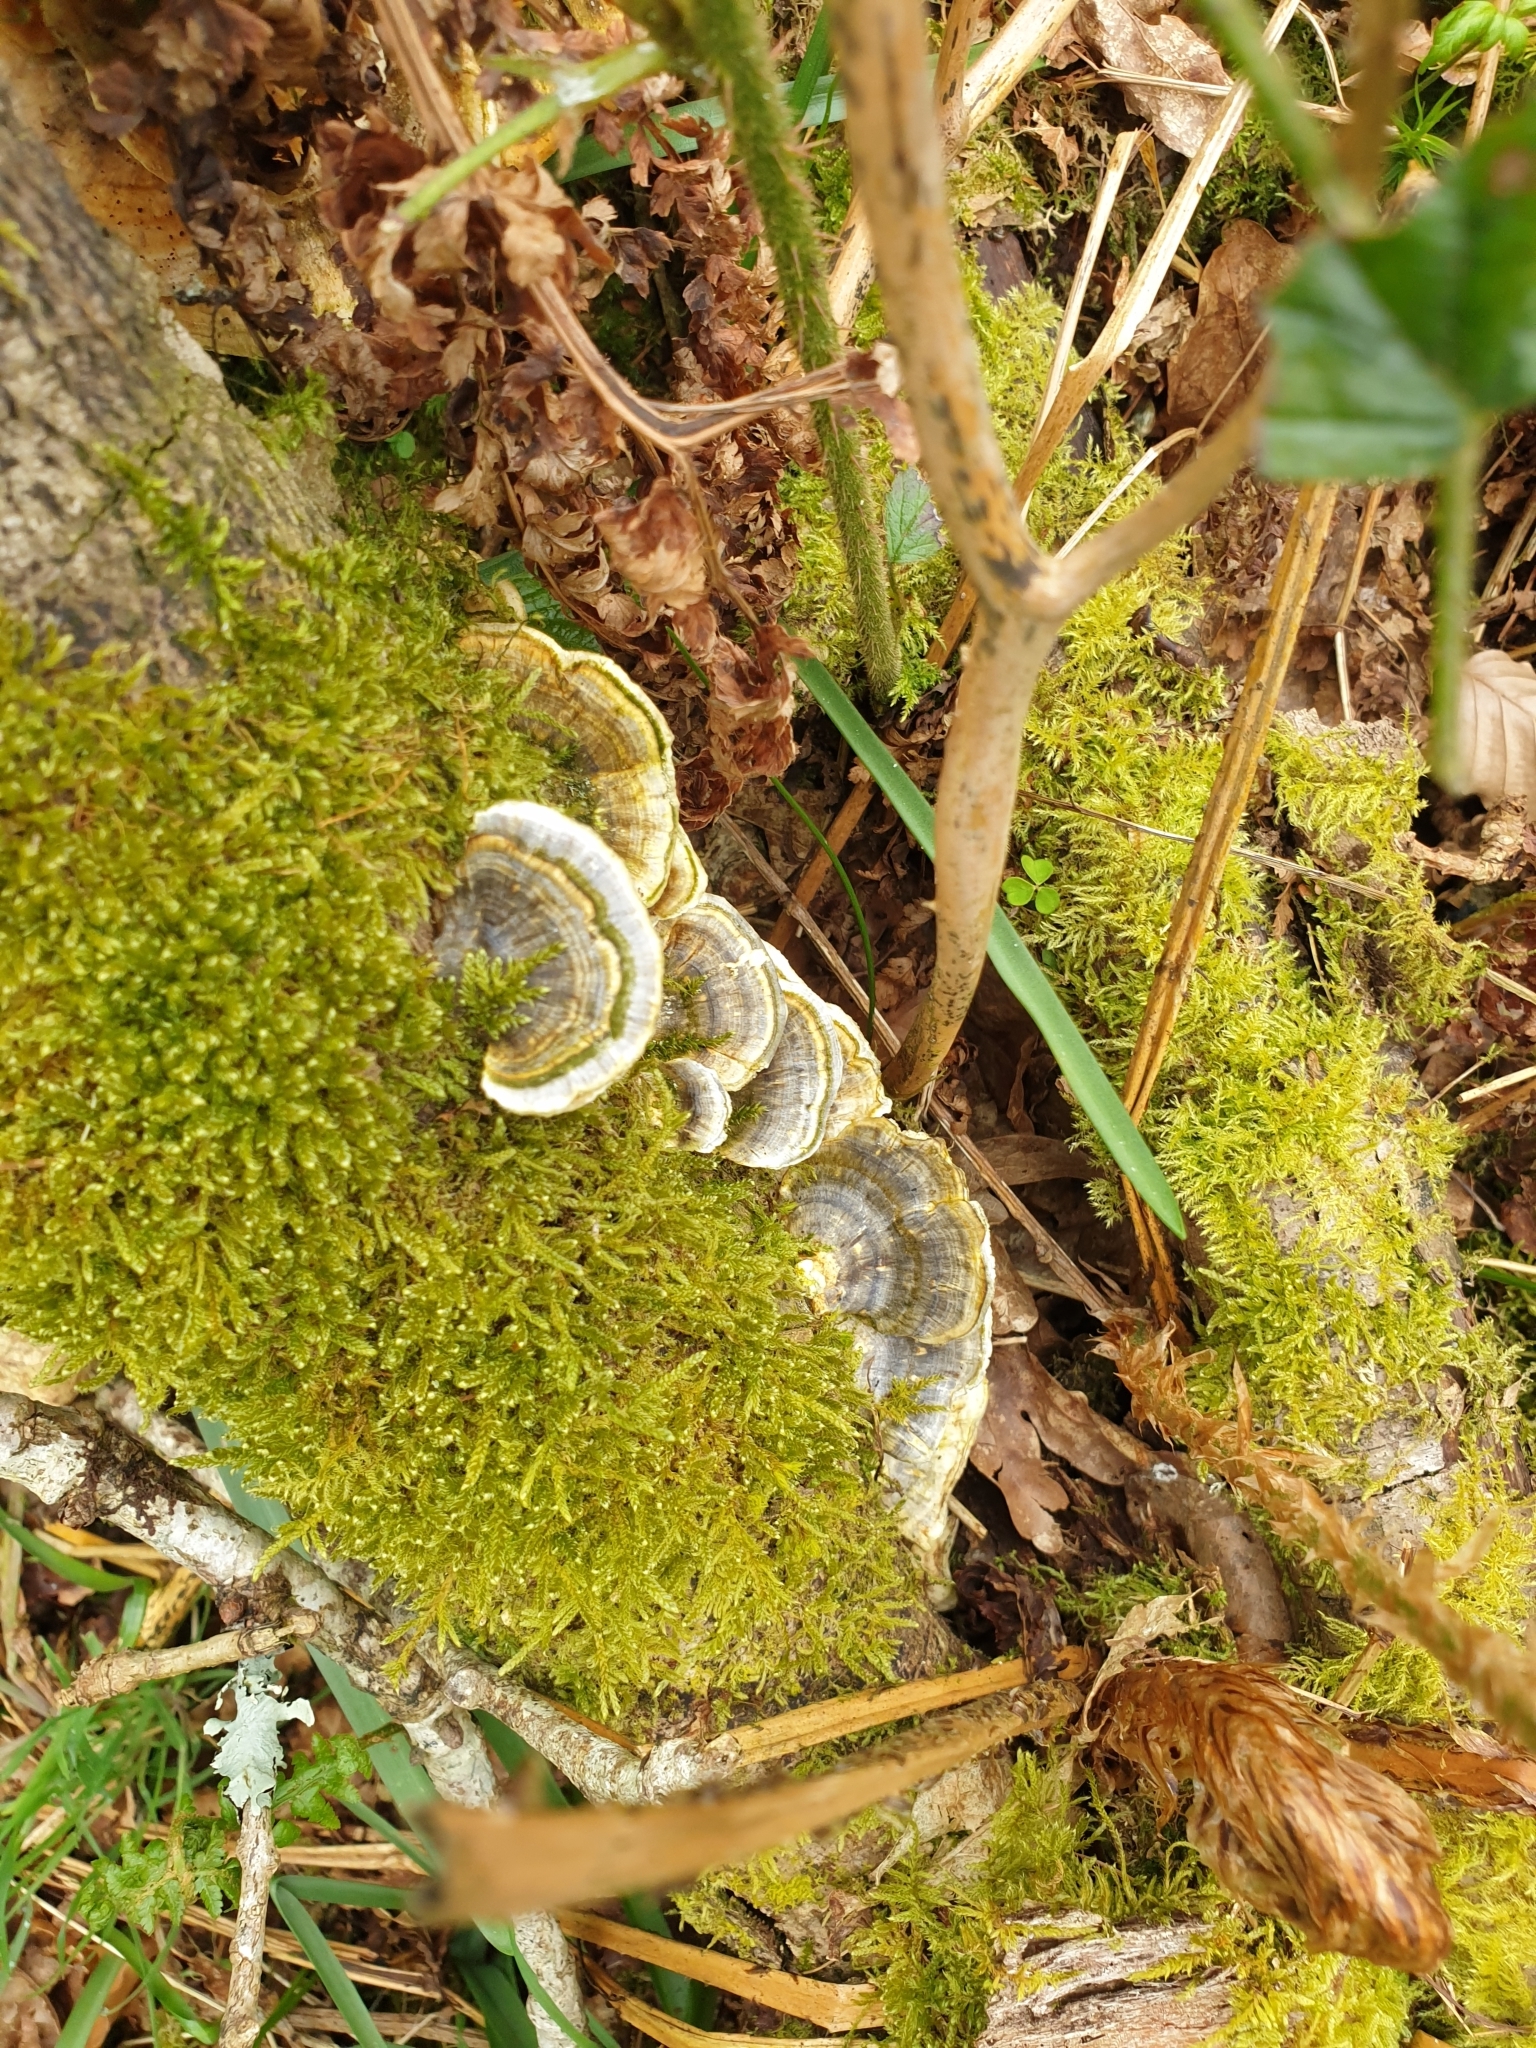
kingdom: Fungi
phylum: Basidiomycota
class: Agaricomycetes
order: Polyporales
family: Polyporaceae
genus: Trametes
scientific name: Trametes versicolor
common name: Turkeytail
